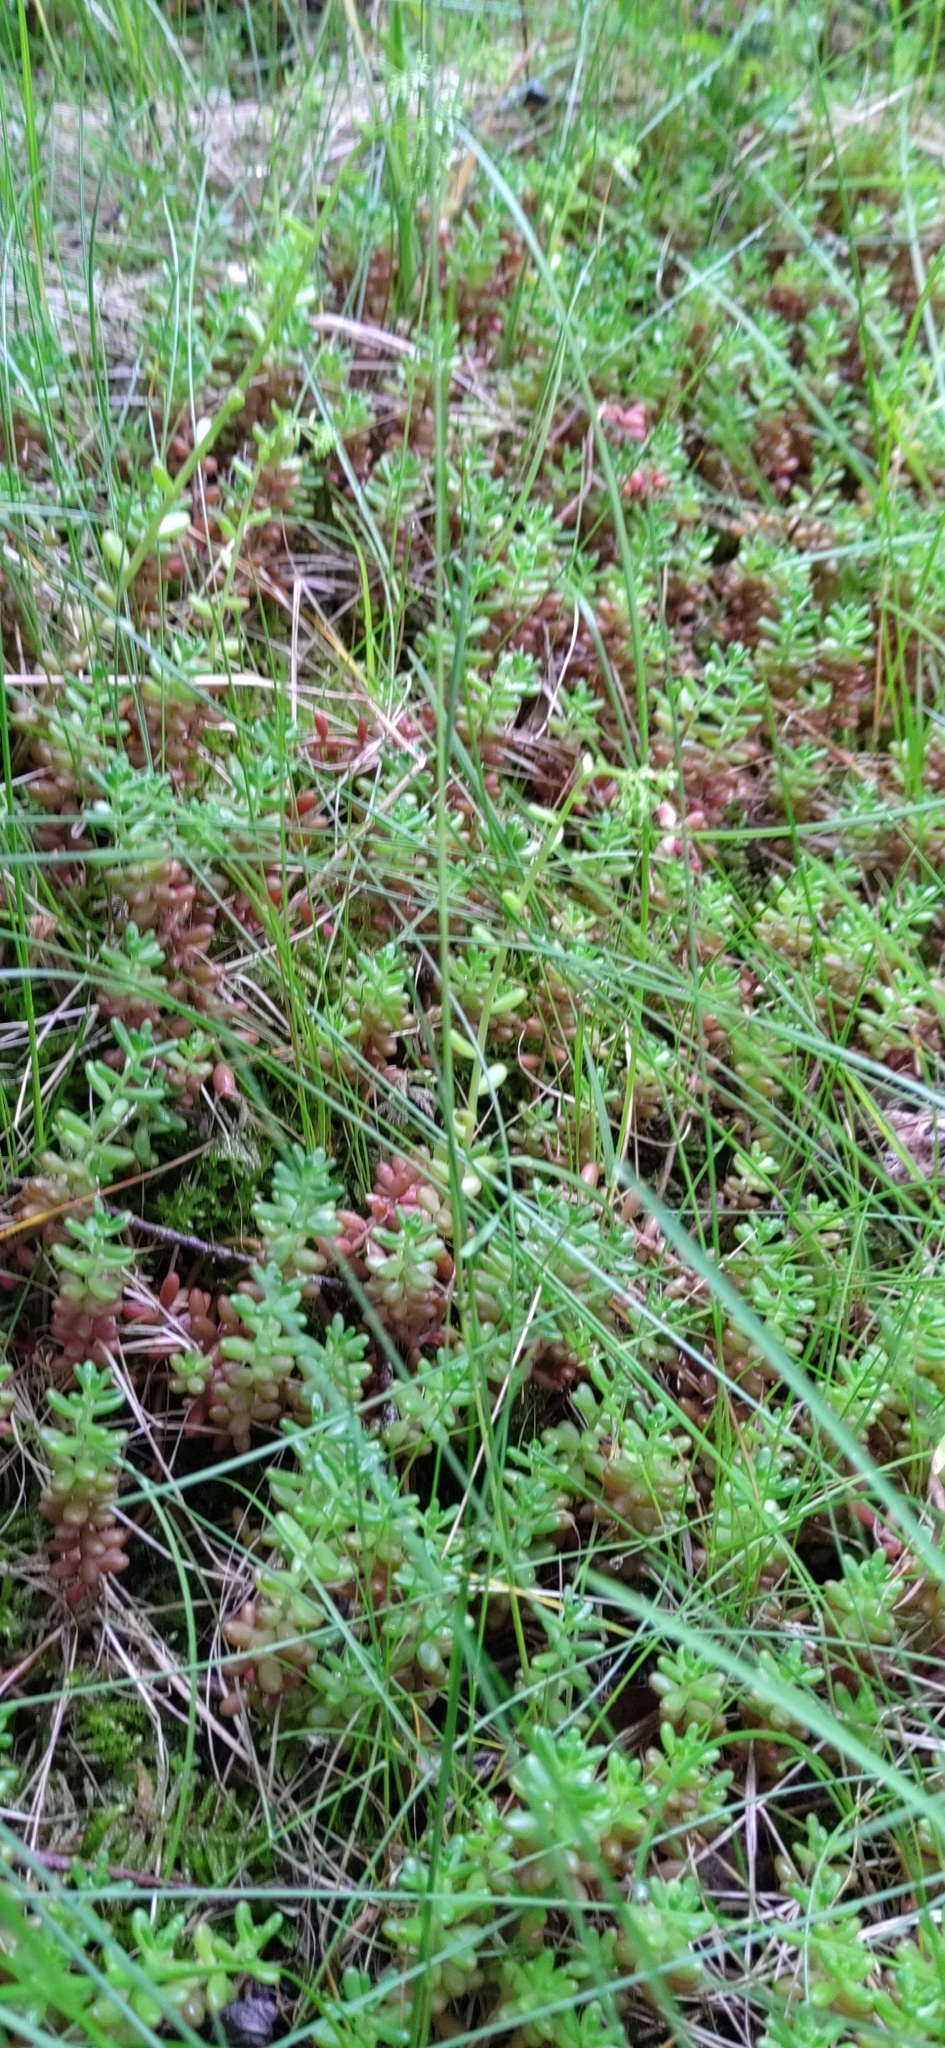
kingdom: Plantae
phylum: Tracheophyta
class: Magnoliopsida
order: Saxifragales
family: Crassulaceae
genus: Sedum
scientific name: Sedum acre
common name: Biting stonecrop
